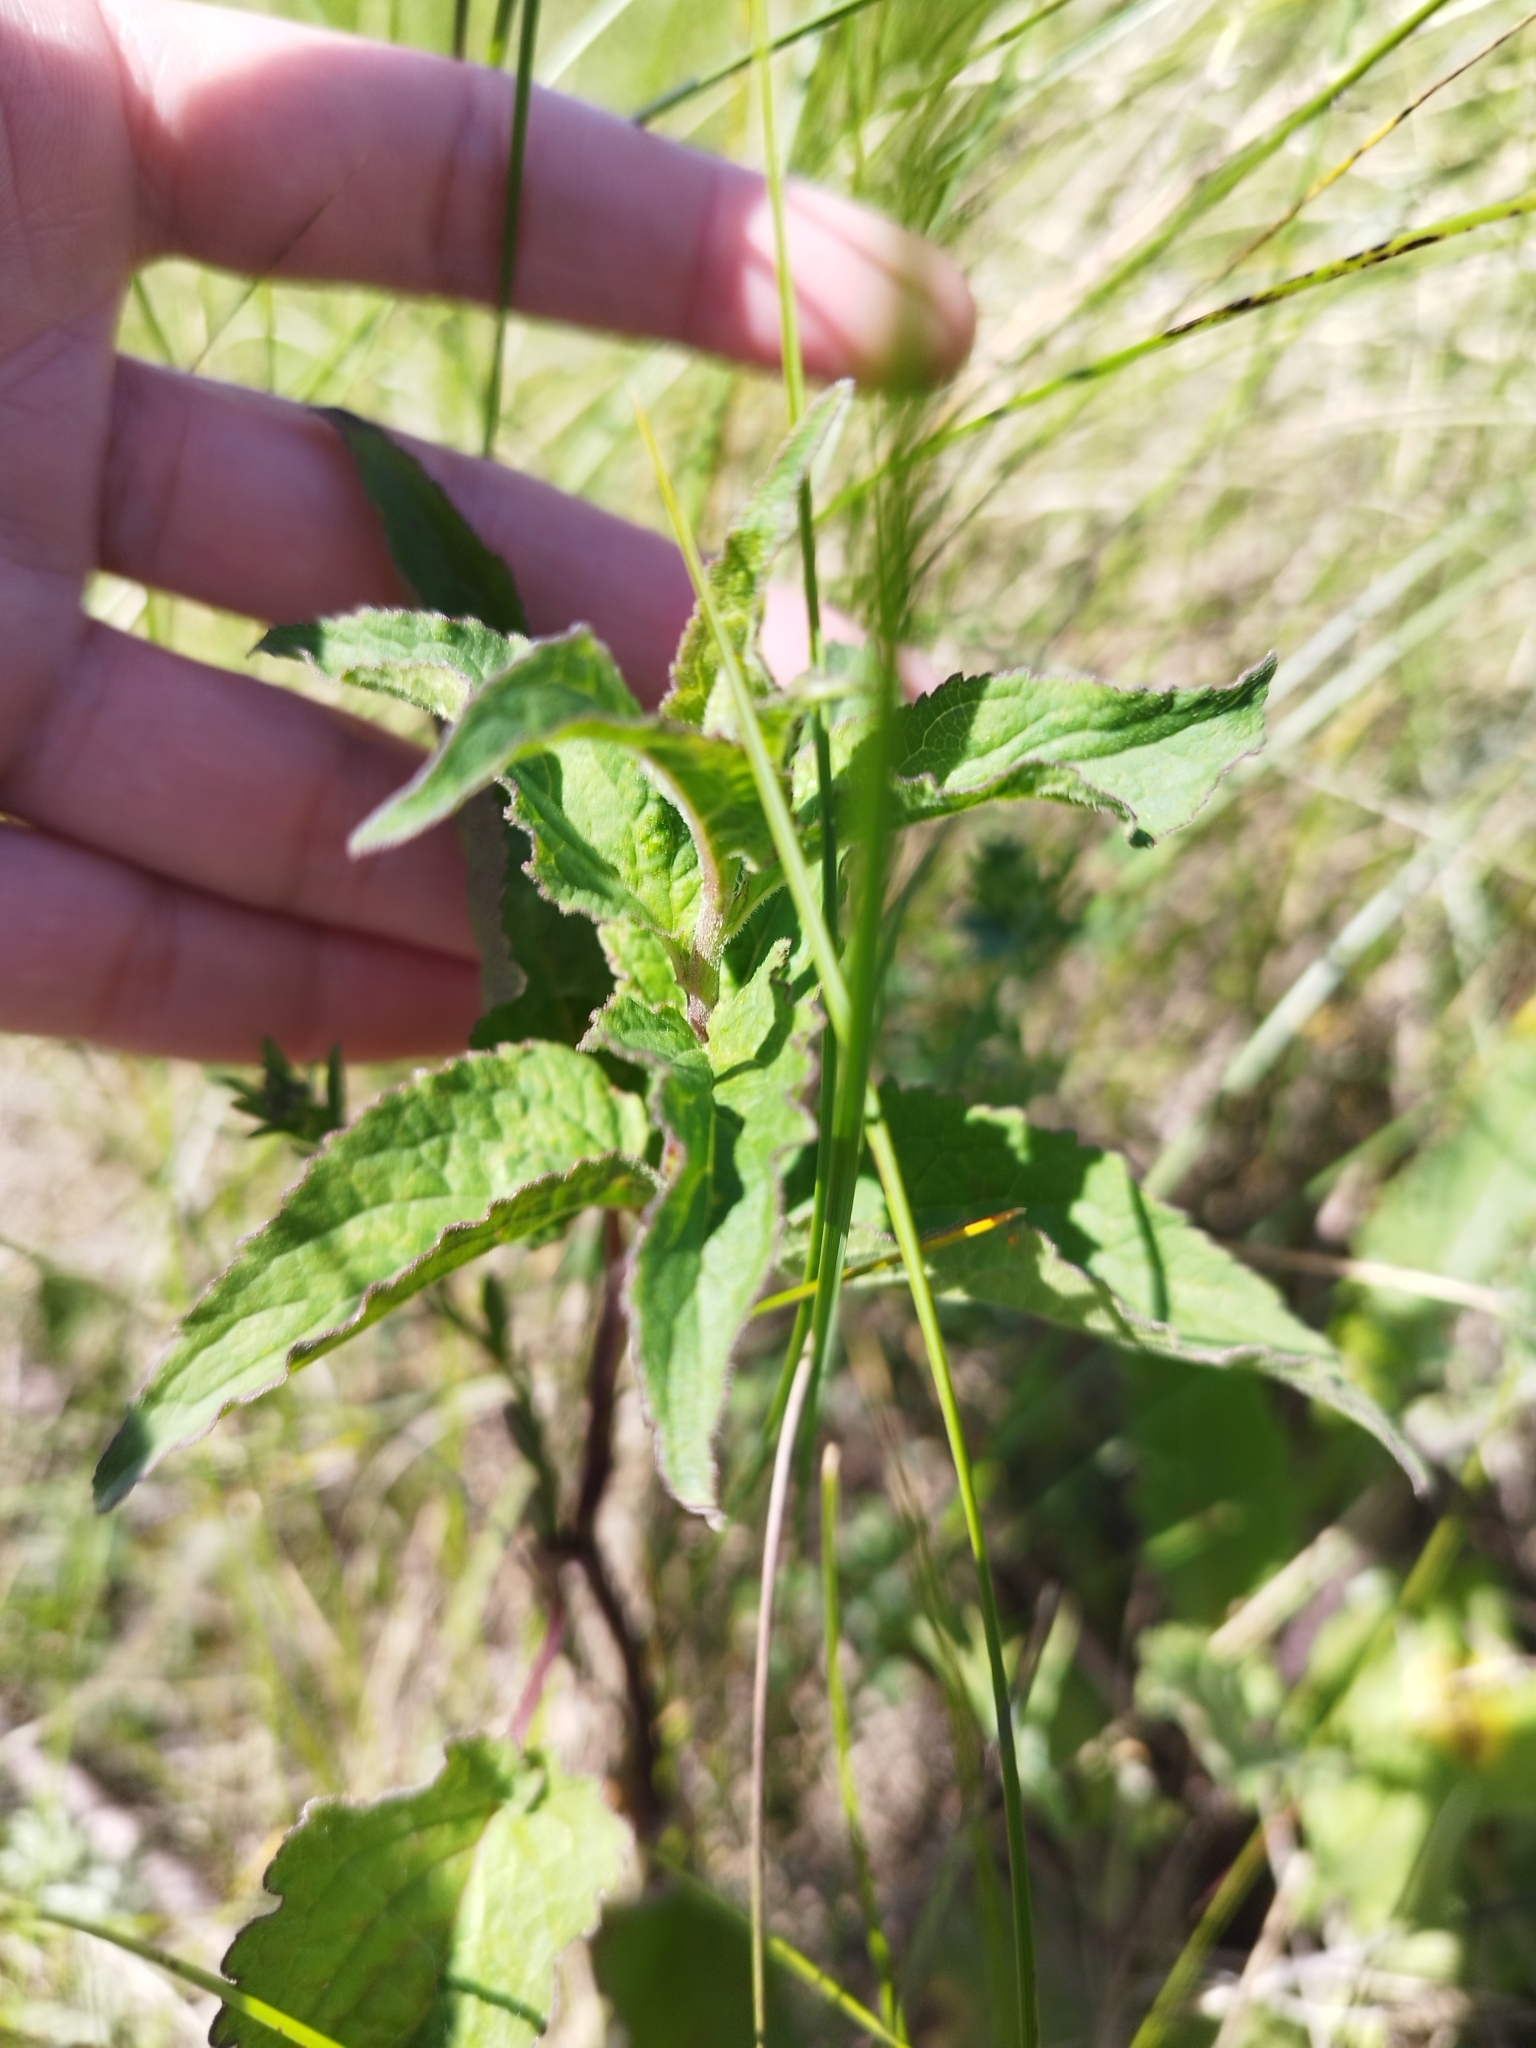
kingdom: Plantae
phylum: Tracheophyta
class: Magnoliopsida
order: Asterales
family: Campanulaceae
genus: Campanula
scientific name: Campanula glomerata
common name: Clustered bellflower
